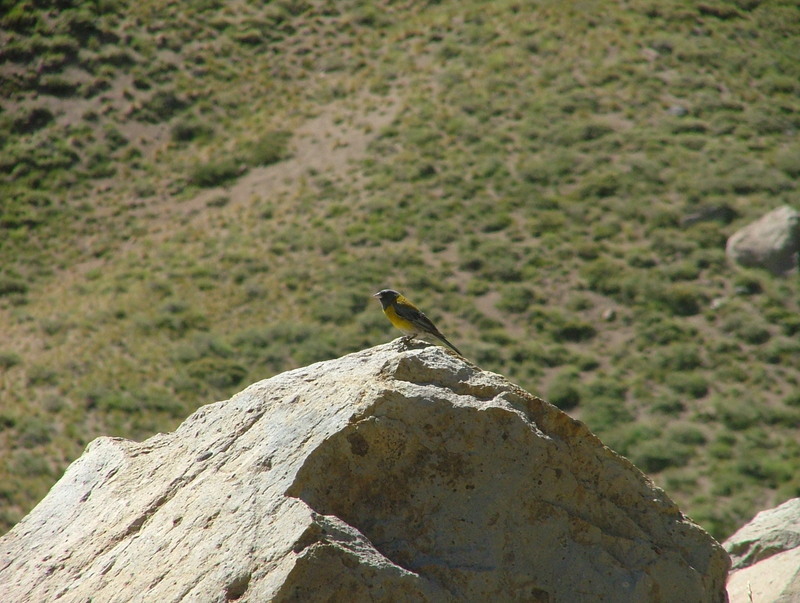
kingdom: Animalia
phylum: Chordata
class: Aves
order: Passeriformes
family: Thraupidae
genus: Phrygilus
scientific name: Phrygilus gayi
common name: Grey-hooded sierra finch
